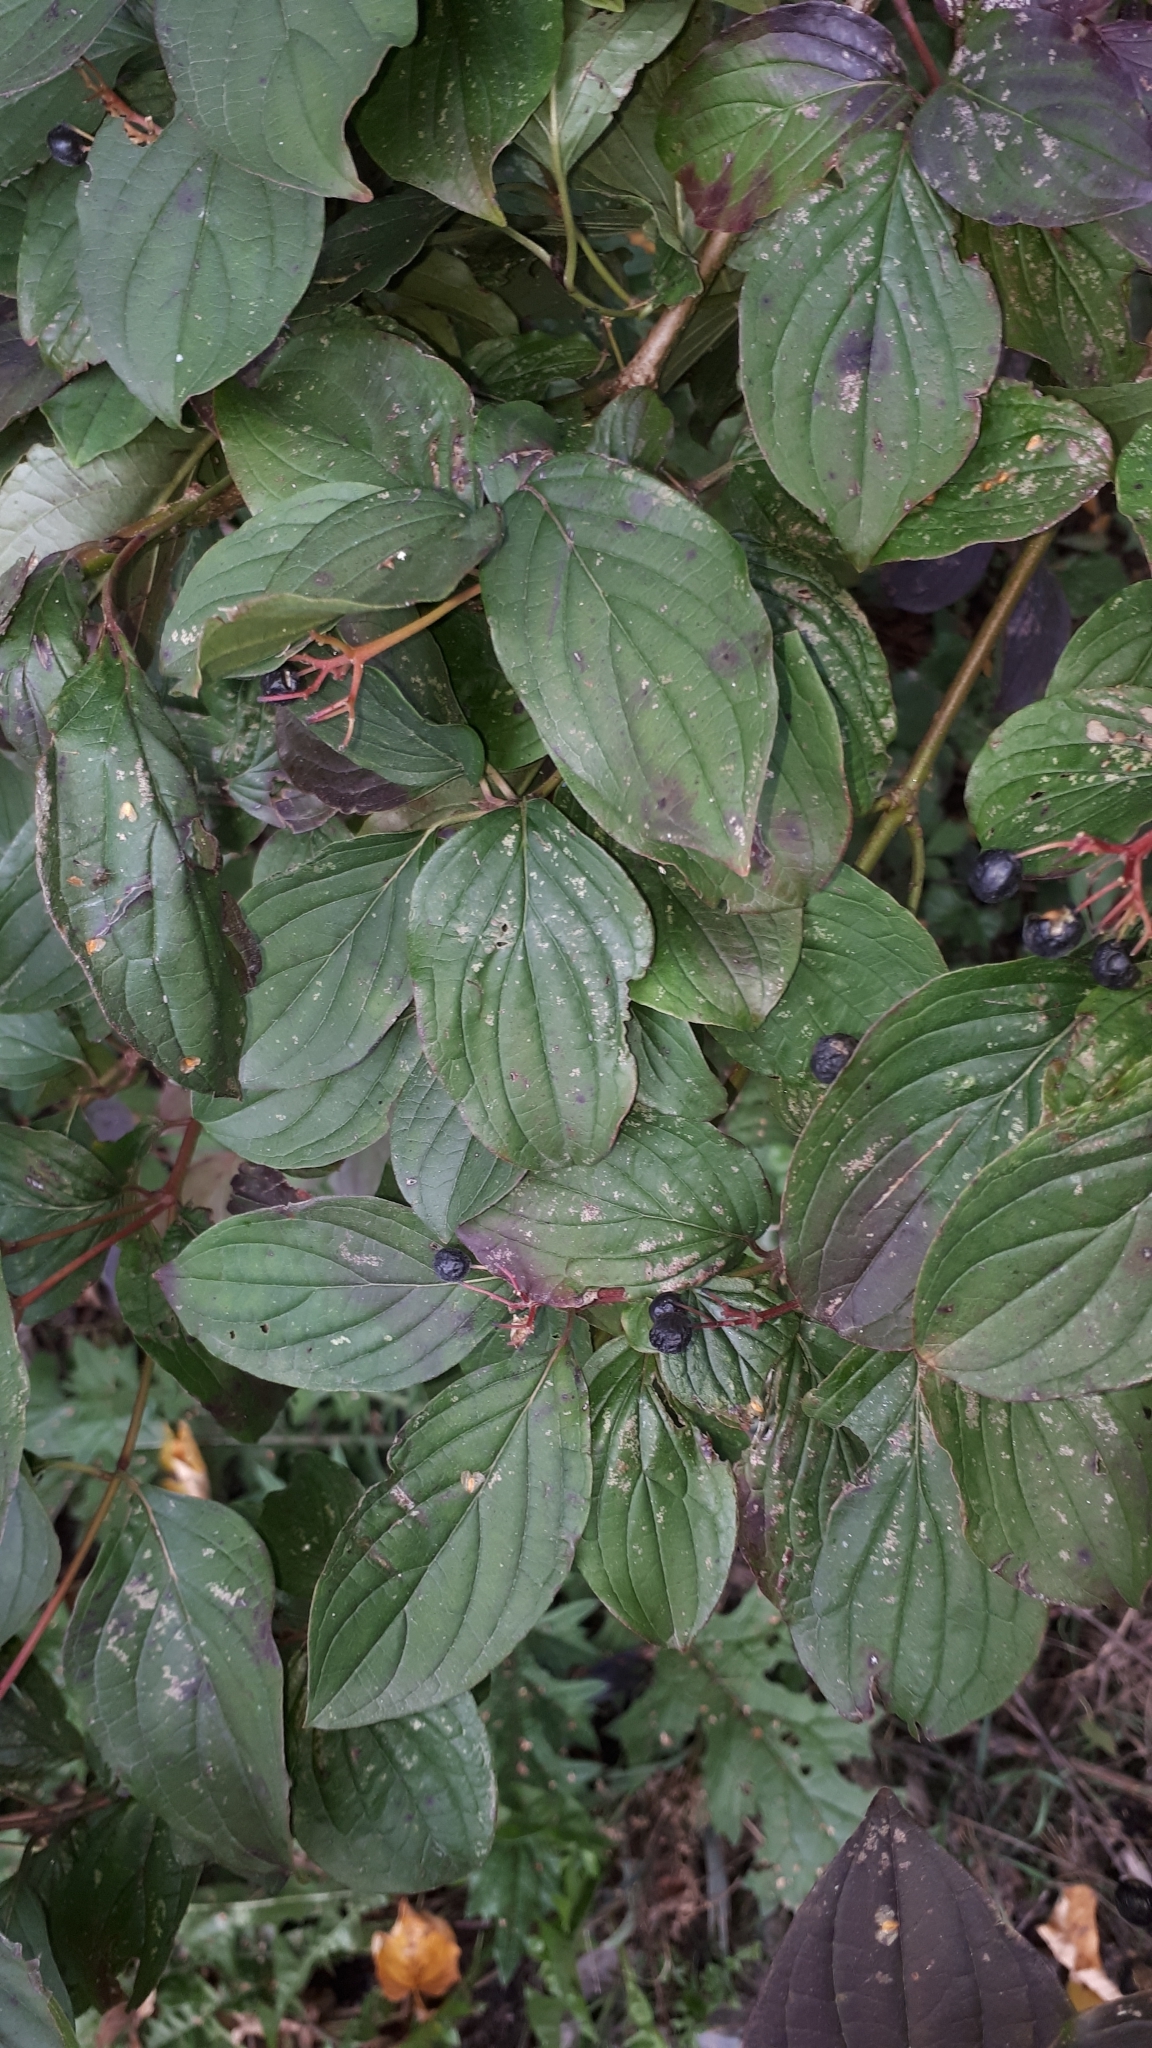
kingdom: Plantae
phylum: Tracheophyta
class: Magnoliopsida
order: Cornales
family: Cornaceae
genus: Cornus
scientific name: Cornus sanguinea
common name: Dogwood
